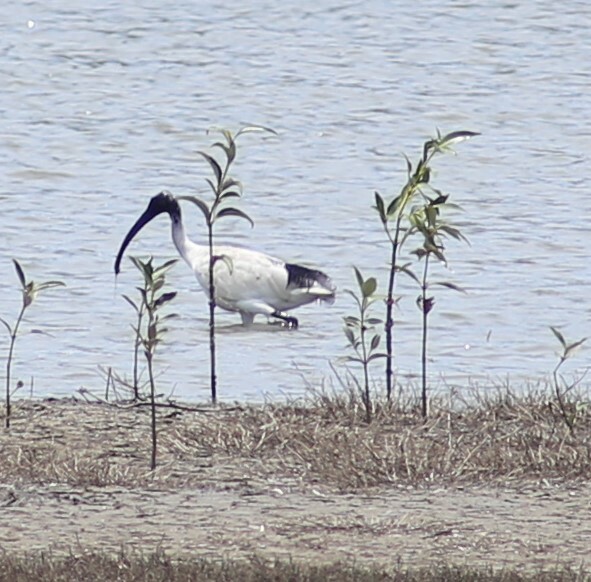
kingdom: Animalia
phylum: Chordata
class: Aves
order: Pelecaniformes
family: Threskiornithidae
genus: Threskiornis
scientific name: Threskiornis molucca
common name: Australian white ibis
